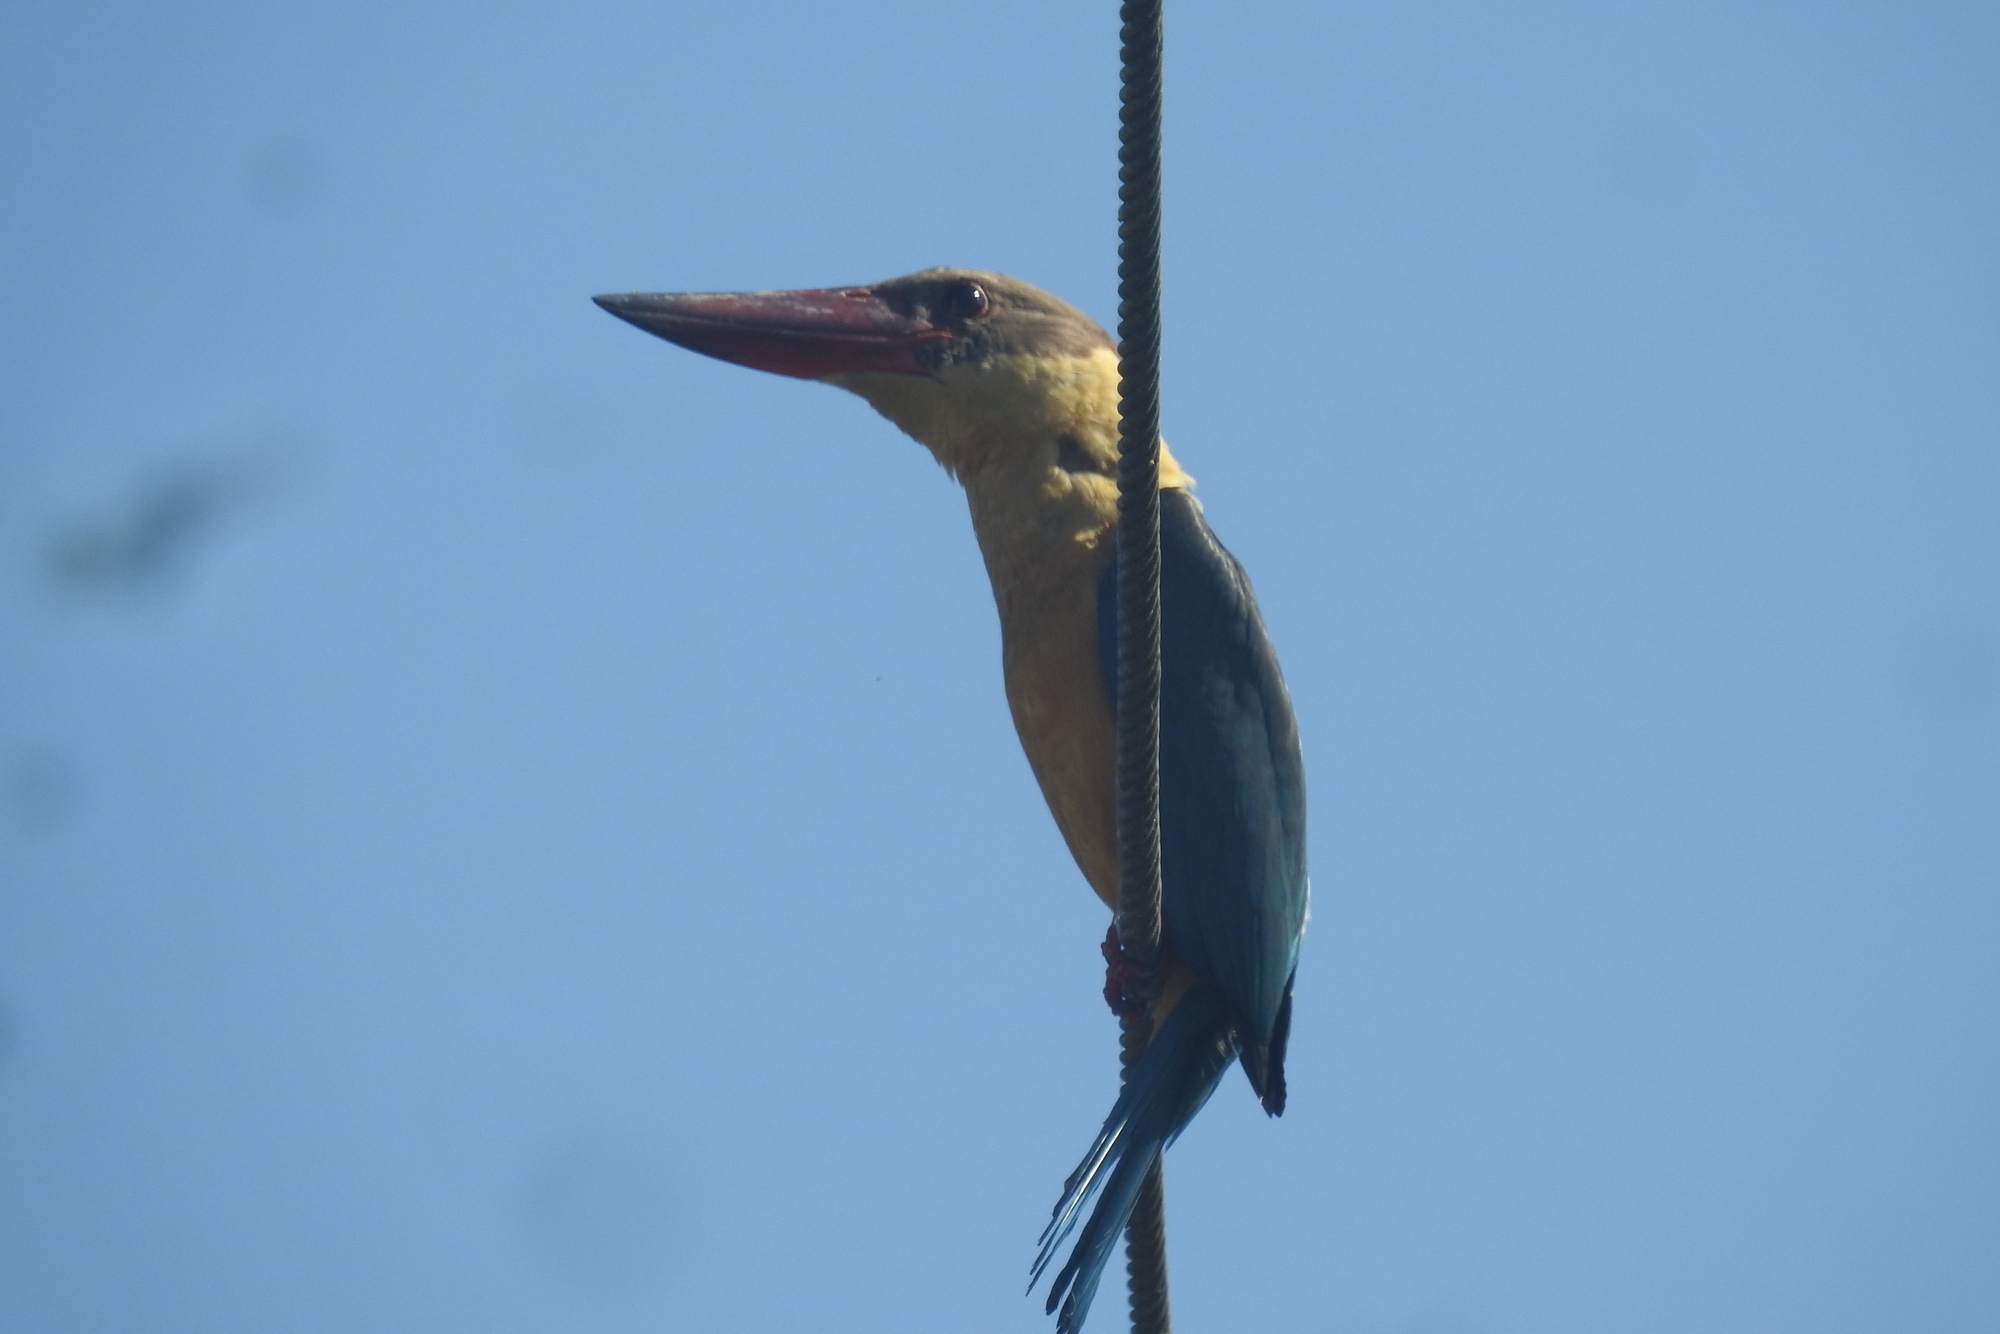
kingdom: Animalia
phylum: Chordata
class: Aves
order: Coraciiformes
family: Alcedinidae
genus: Pelargopsis
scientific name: Pelargopsis capensis
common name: Stork-billed kingfisher
